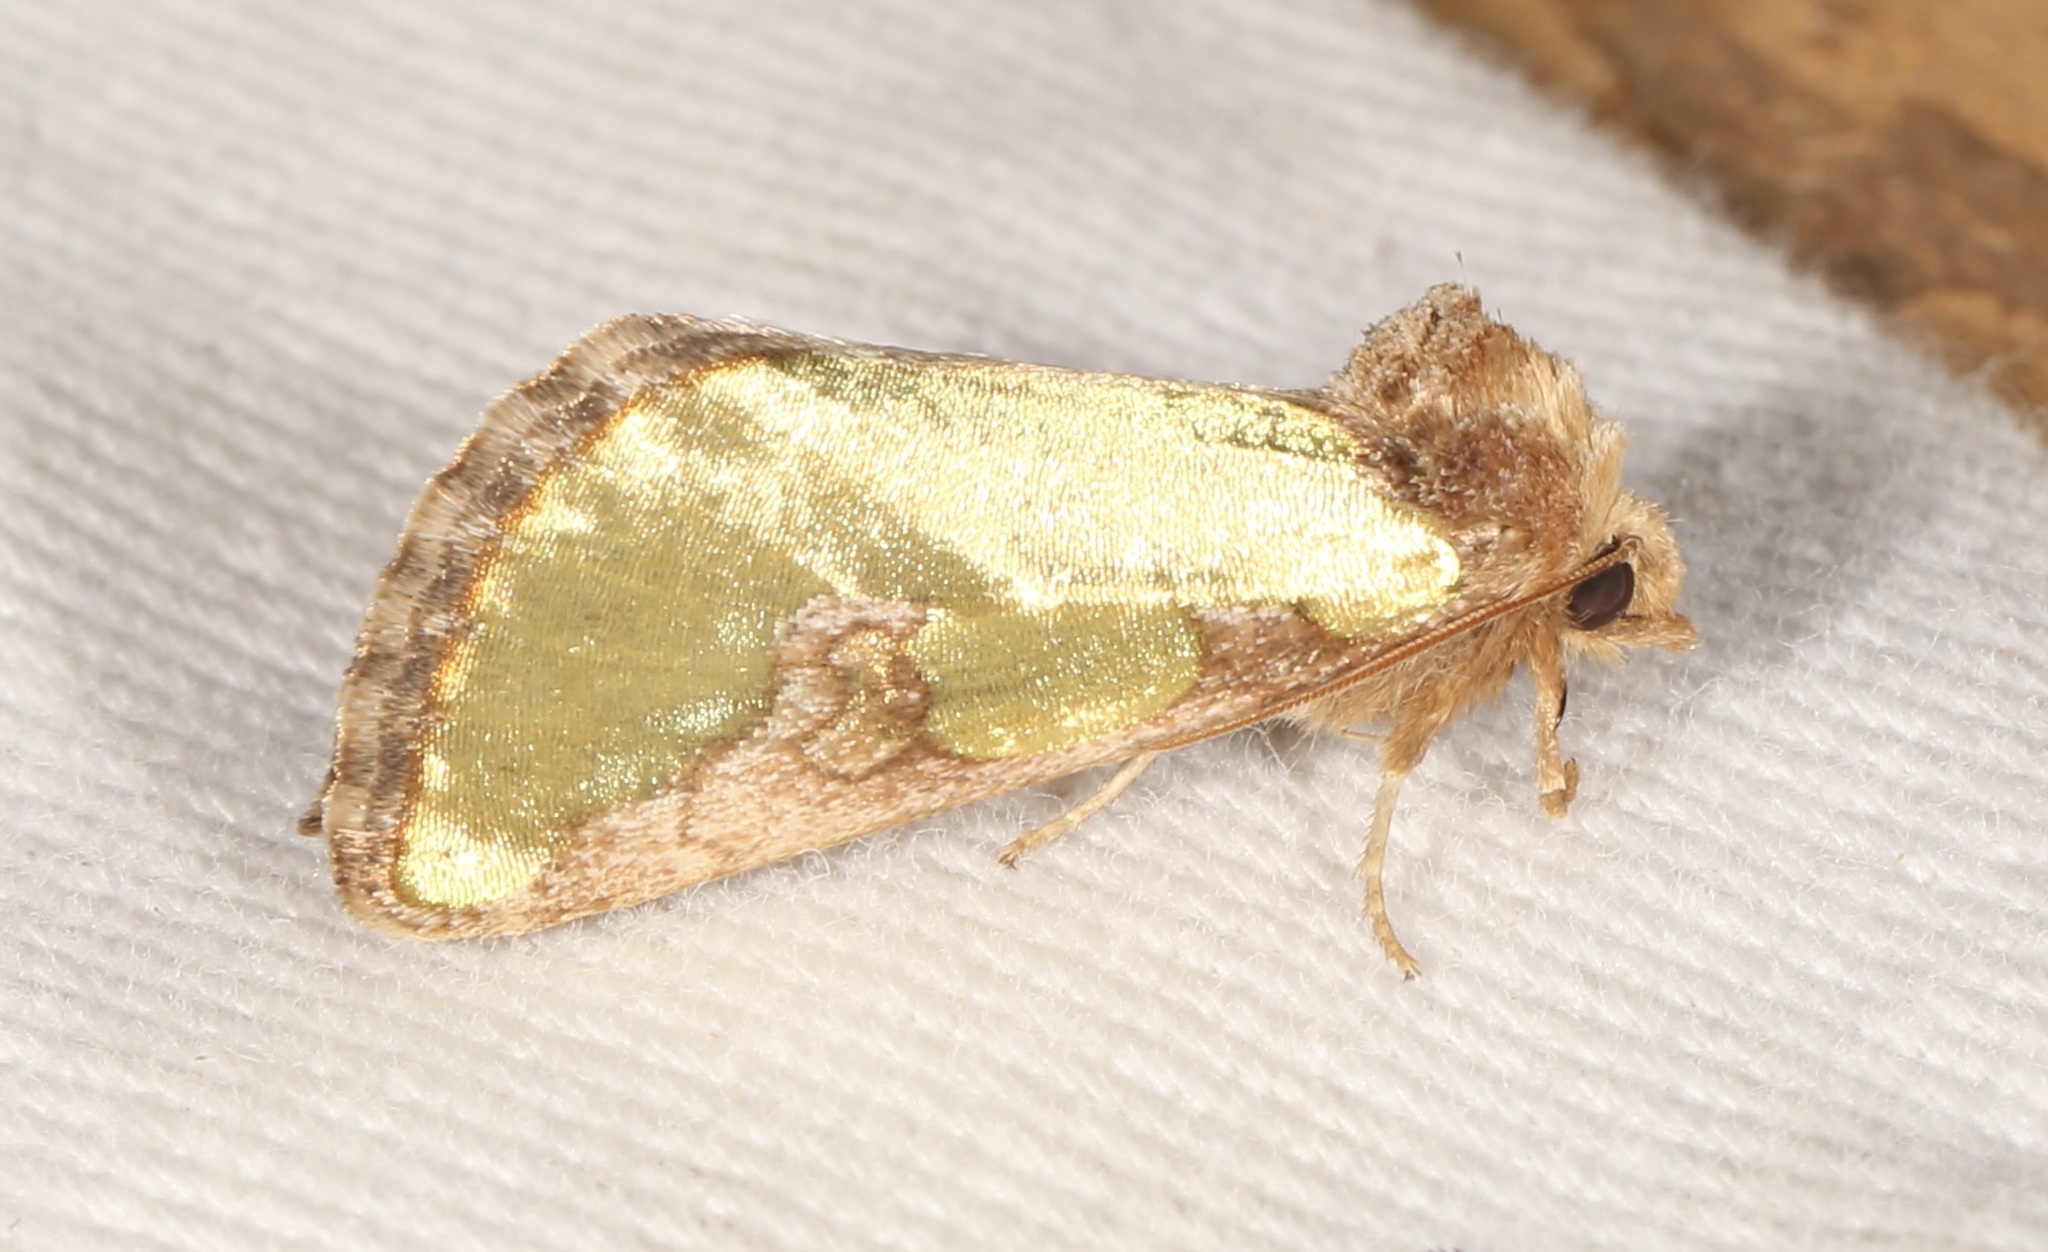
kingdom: Animalia
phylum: Arthropoda
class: Insecta
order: Lepidoptera
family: Noctuidae
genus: Chalcopasta
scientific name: Chalcopasta territans
